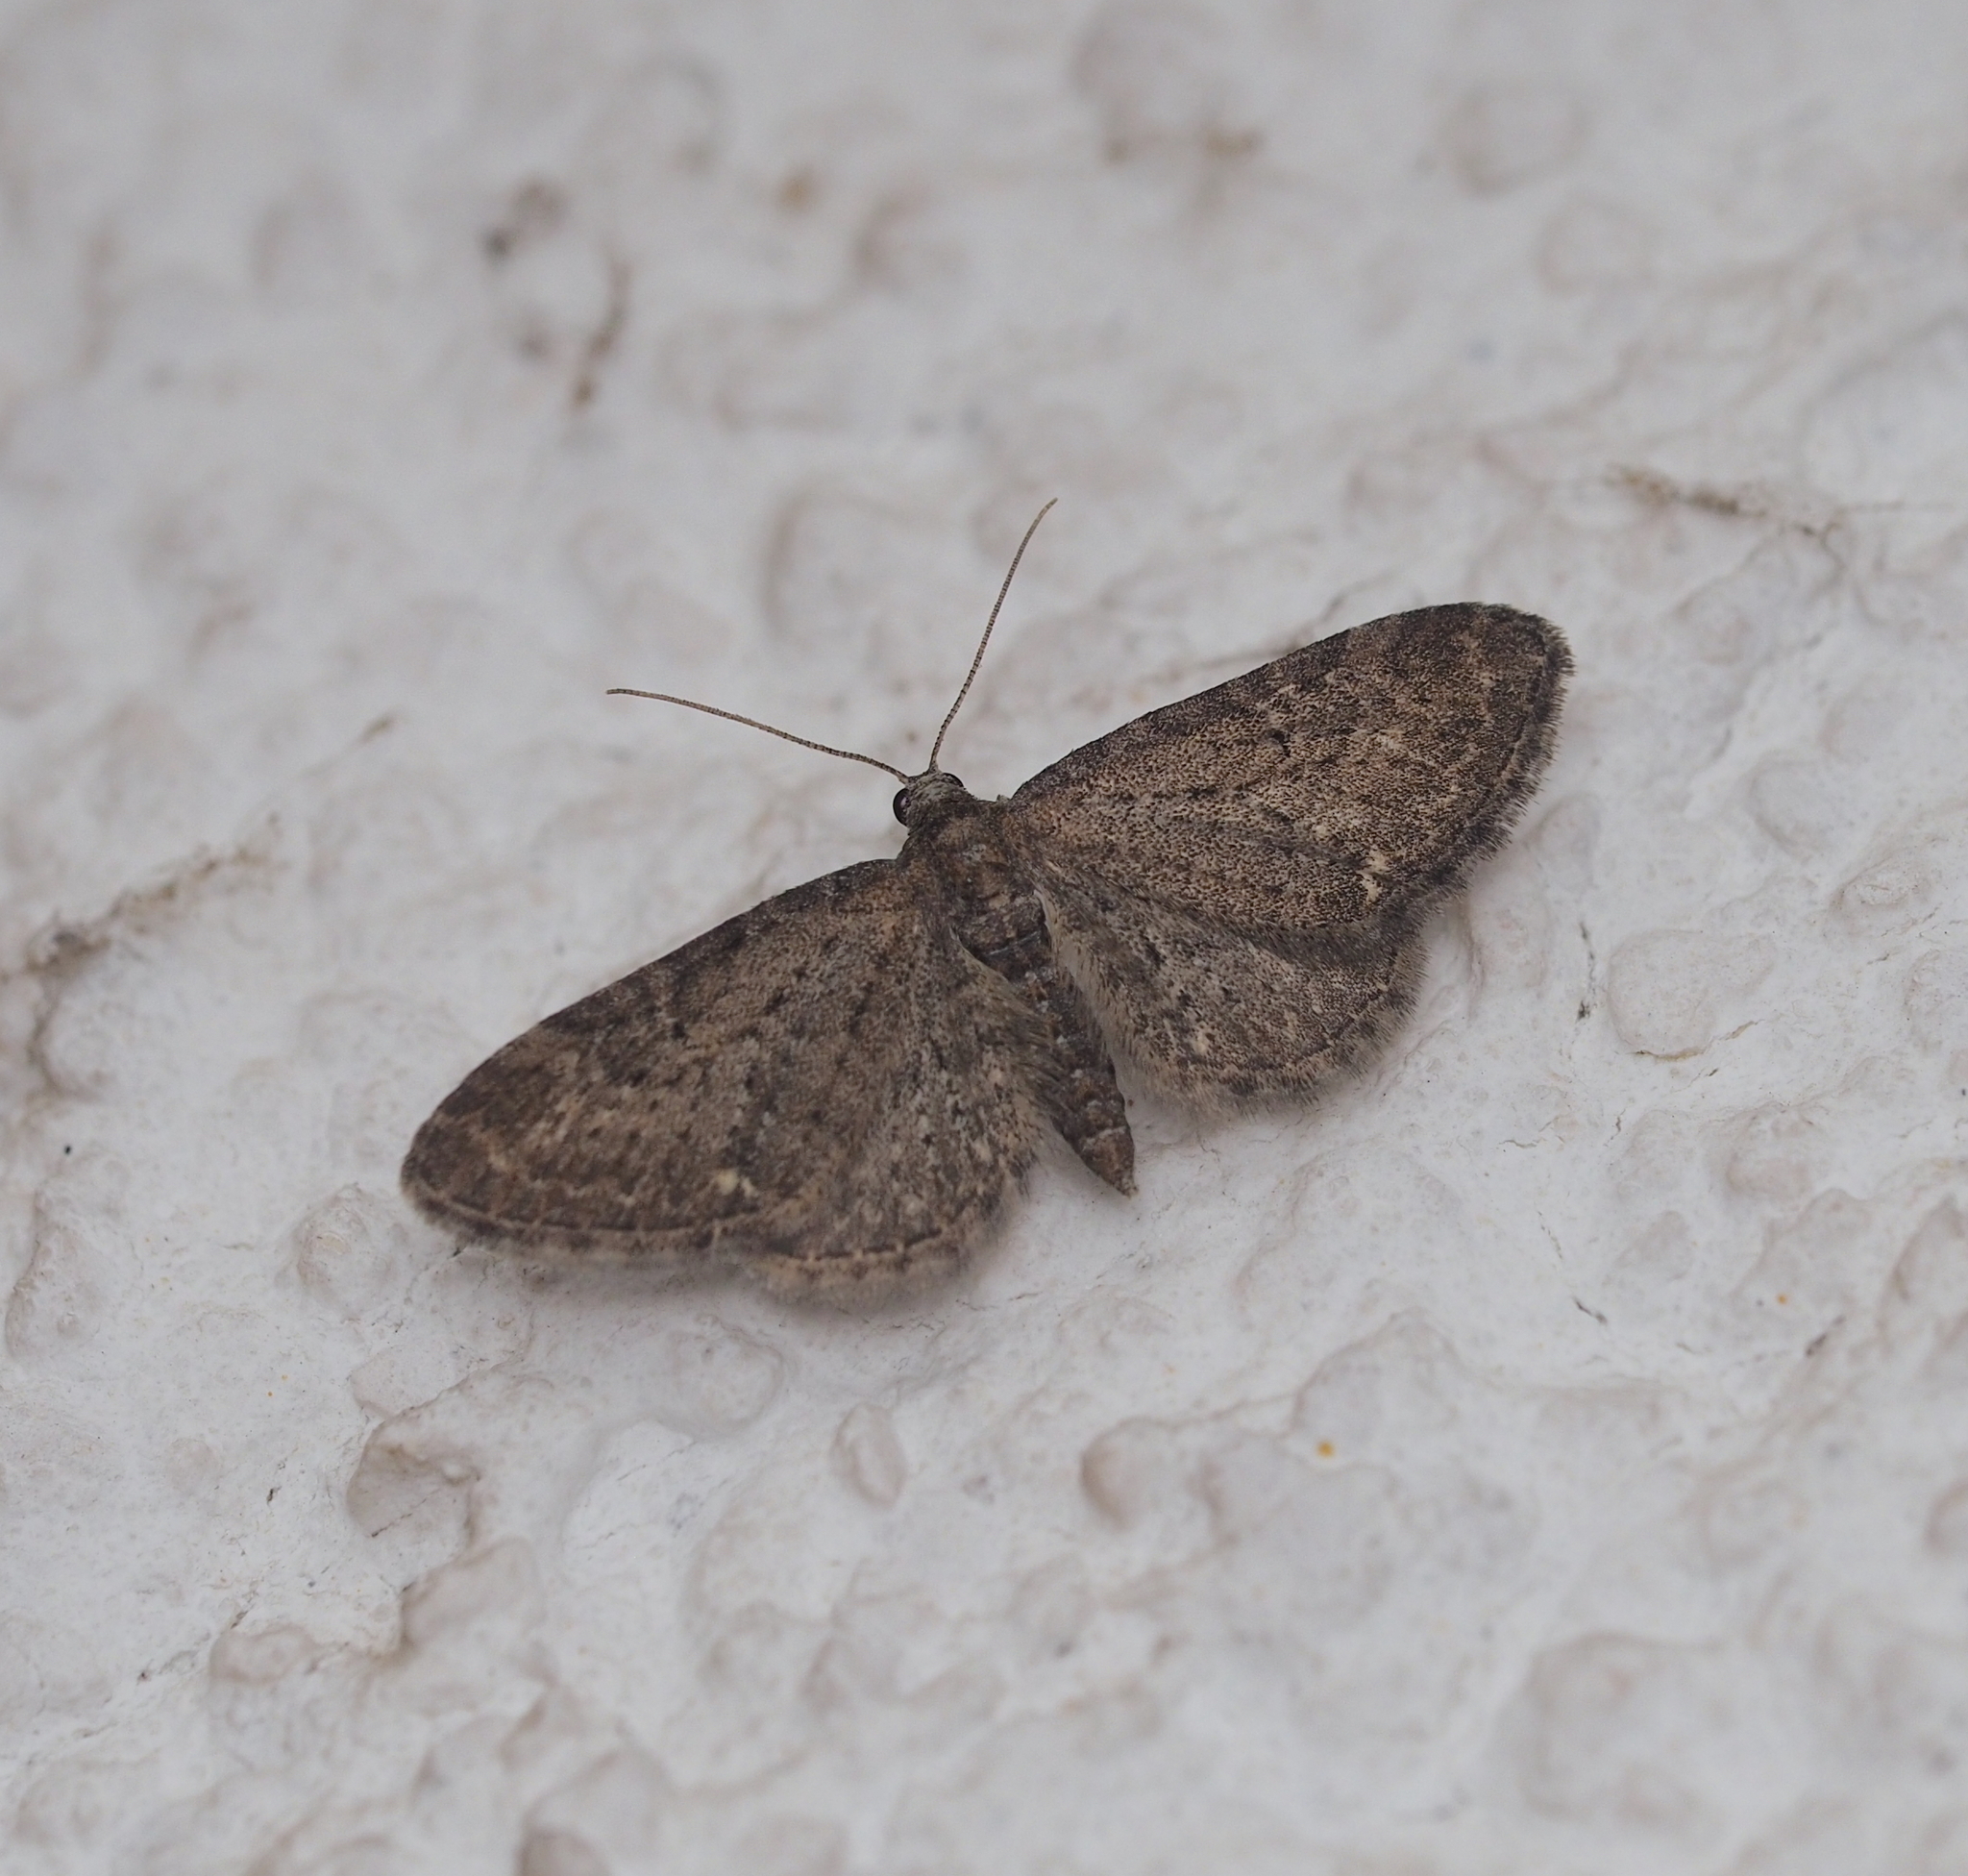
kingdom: Animalia
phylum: Arthropoda
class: Insecta
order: Lepidoptera
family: Geometridae
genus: Eupithecia
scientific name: Eupithecia vulgata
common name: Common pug
